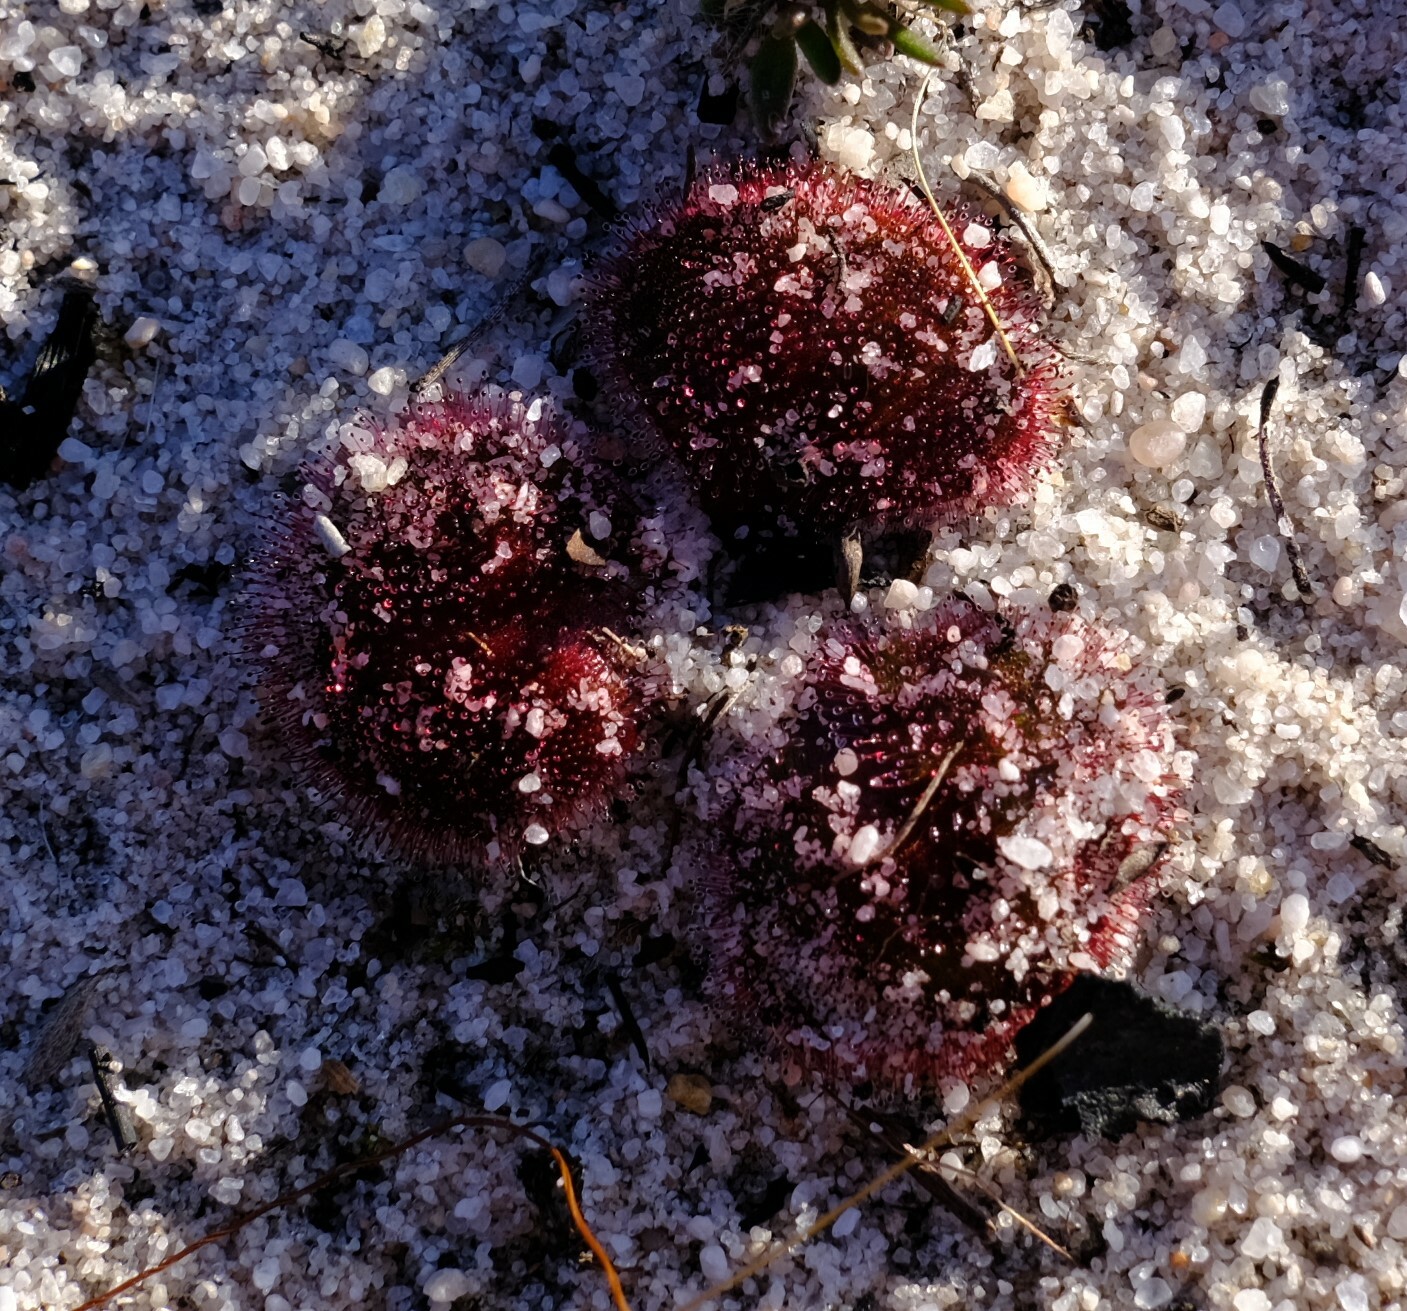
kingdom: Plantae
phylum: Tracheophyta
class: Magnoliopsida
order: Caryophyllales
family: Droseraceae
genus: Drosera
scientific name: Drosera erythrorhiza
